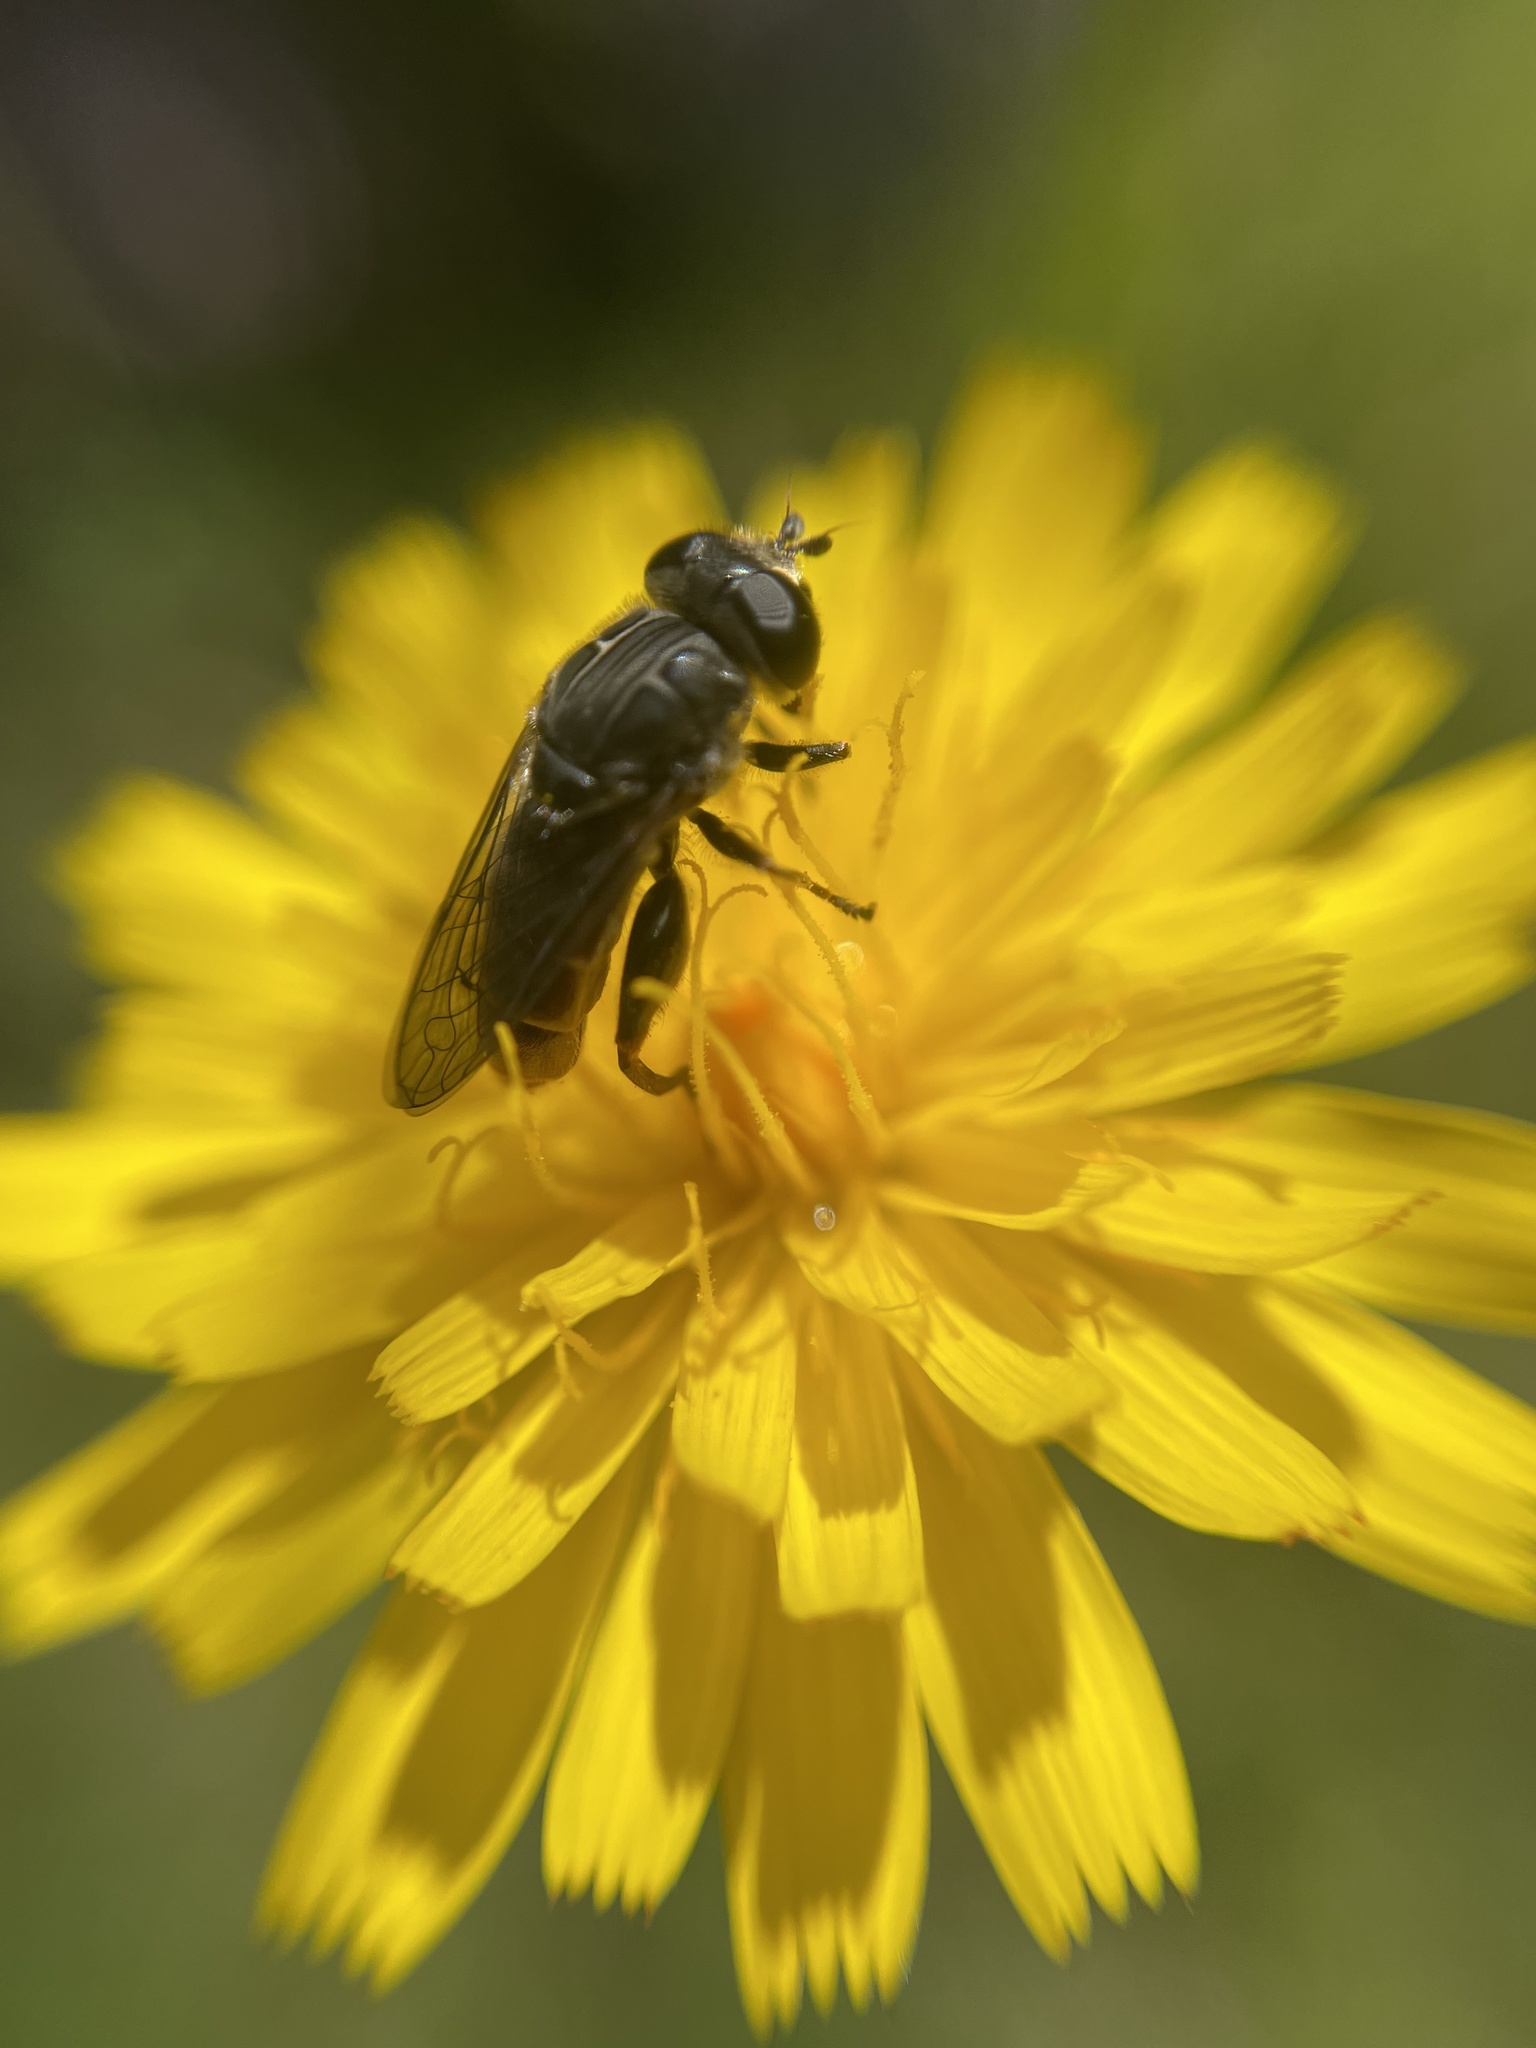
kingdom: Animalia
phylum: Arthropoda
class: Insecta
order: Diptera
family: Syrphidae
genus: Asemosyrphus
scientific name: Asemosyrphus
